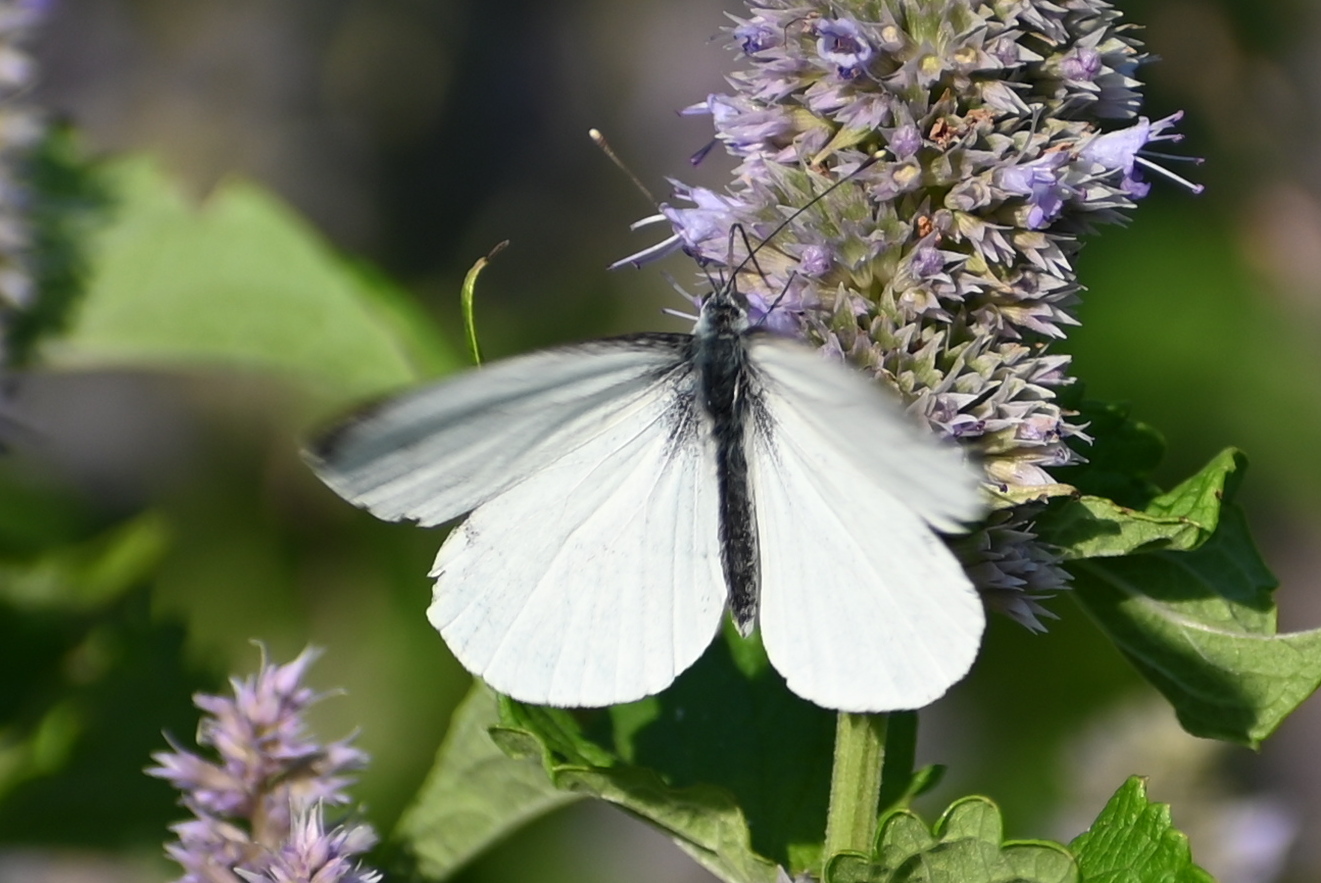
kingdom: Animalia
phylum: Arthropoda
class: Insecta
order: Lepidoptera
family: Pieridae
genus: Pieris
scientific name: Pieris napi
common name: Green-veined white
